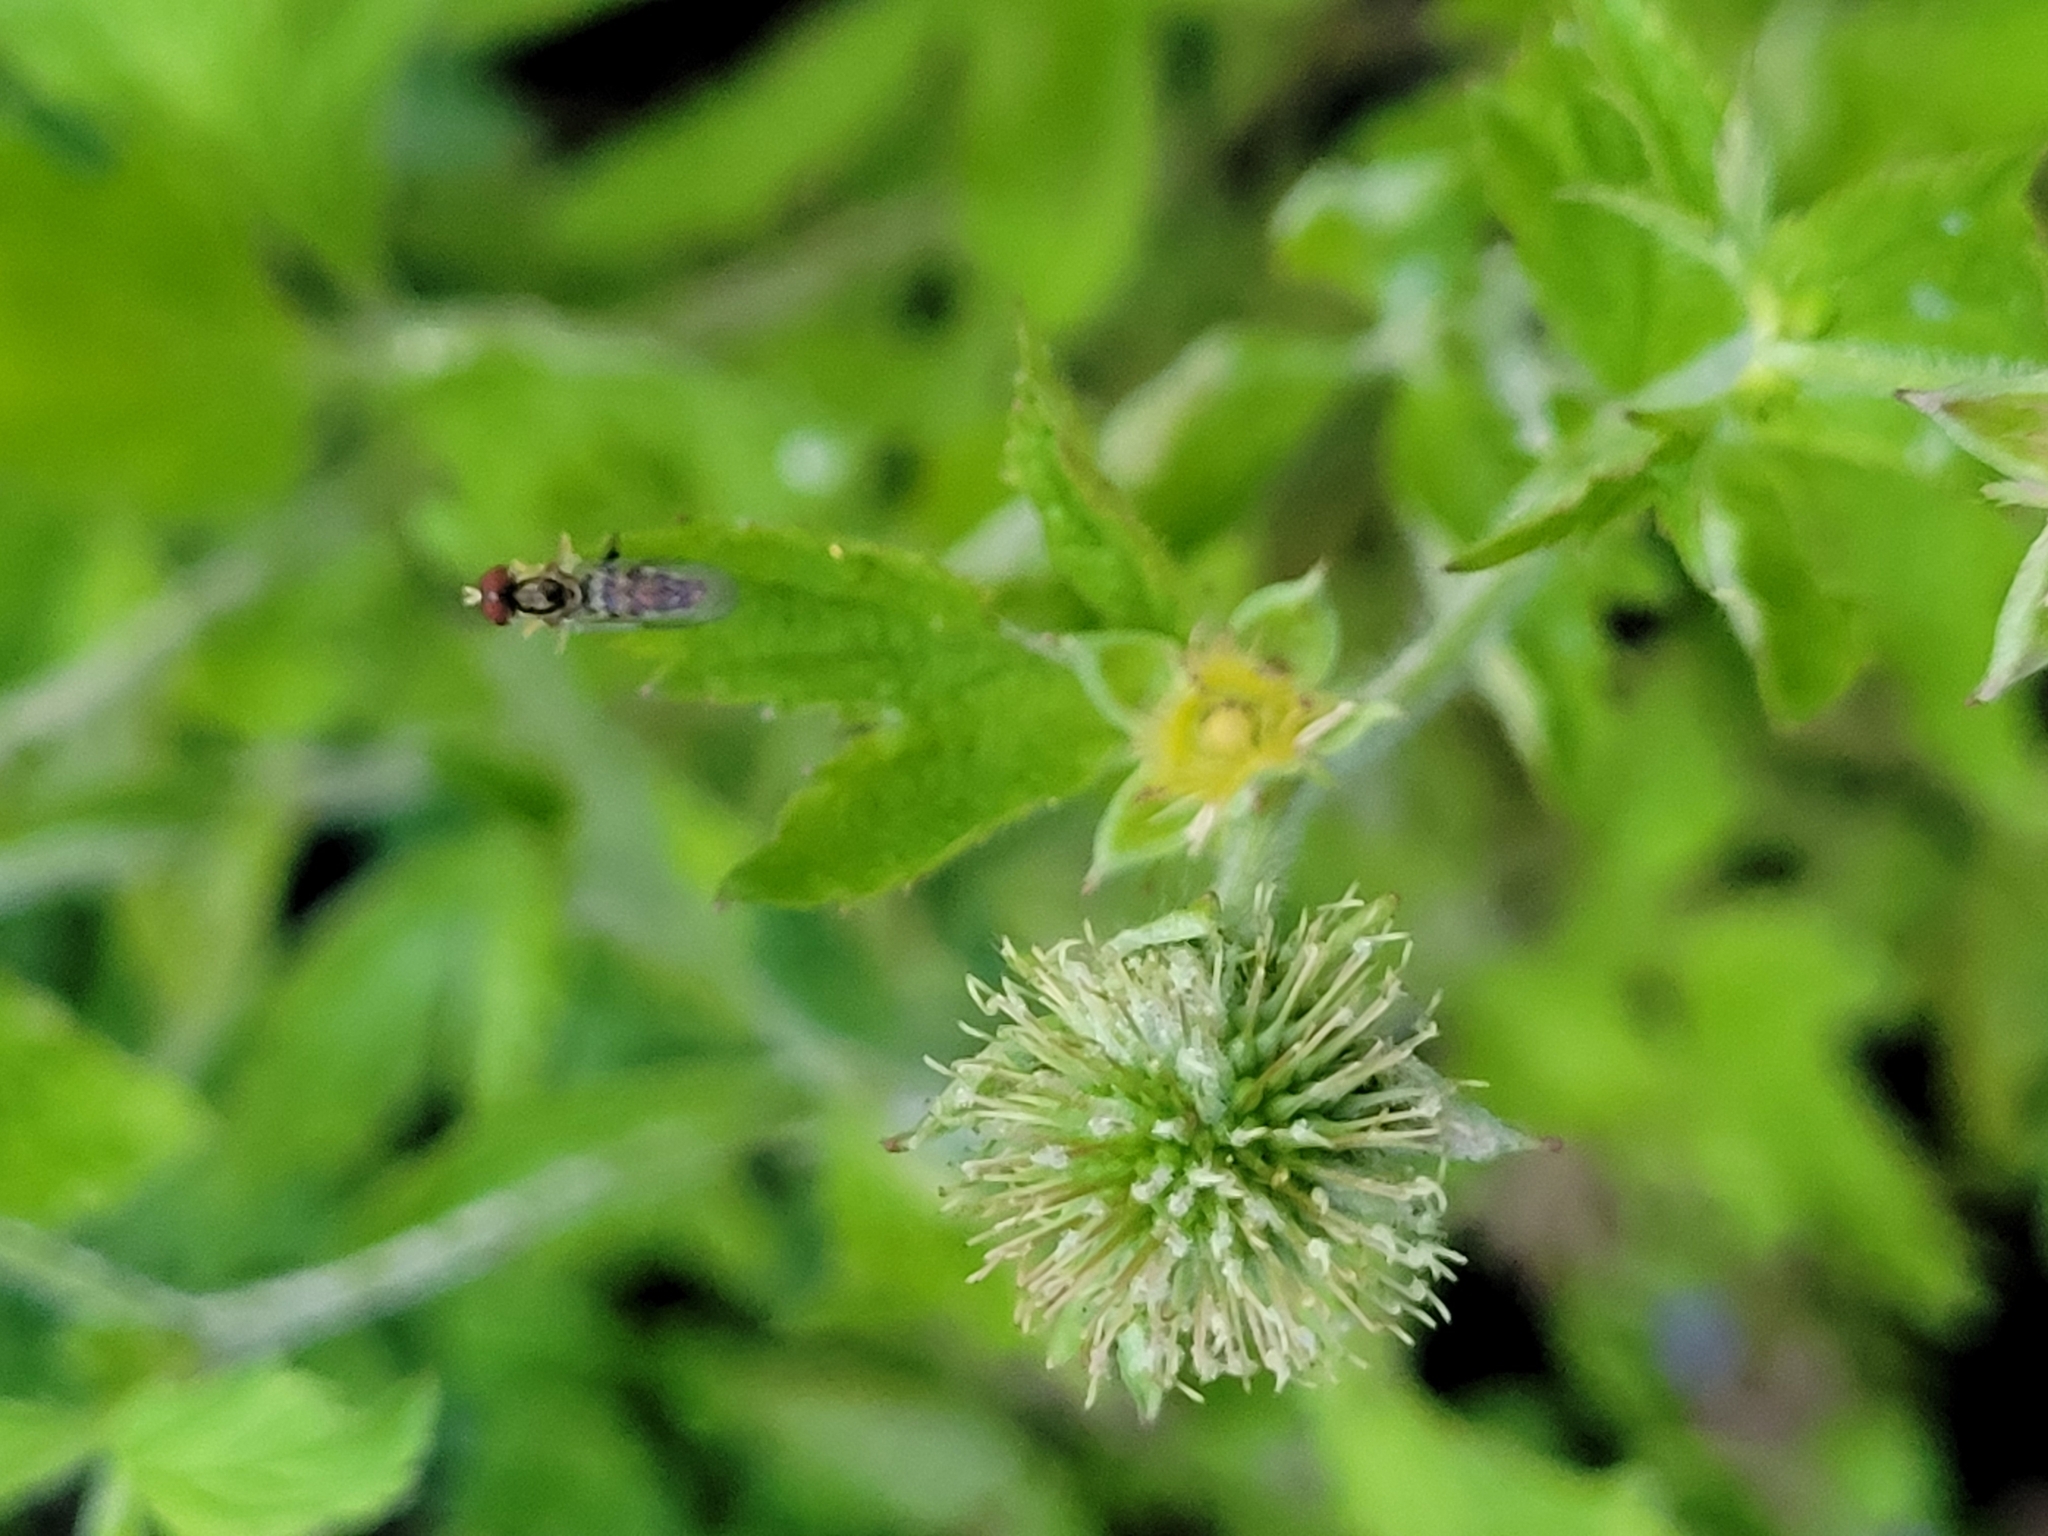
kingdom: Animalia
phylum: Arthropoda
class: Insecta
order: Diptera
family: Syrphidae
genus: Toxomerus
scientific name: Toxomerus geminatus
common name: Eastern calligrapher
